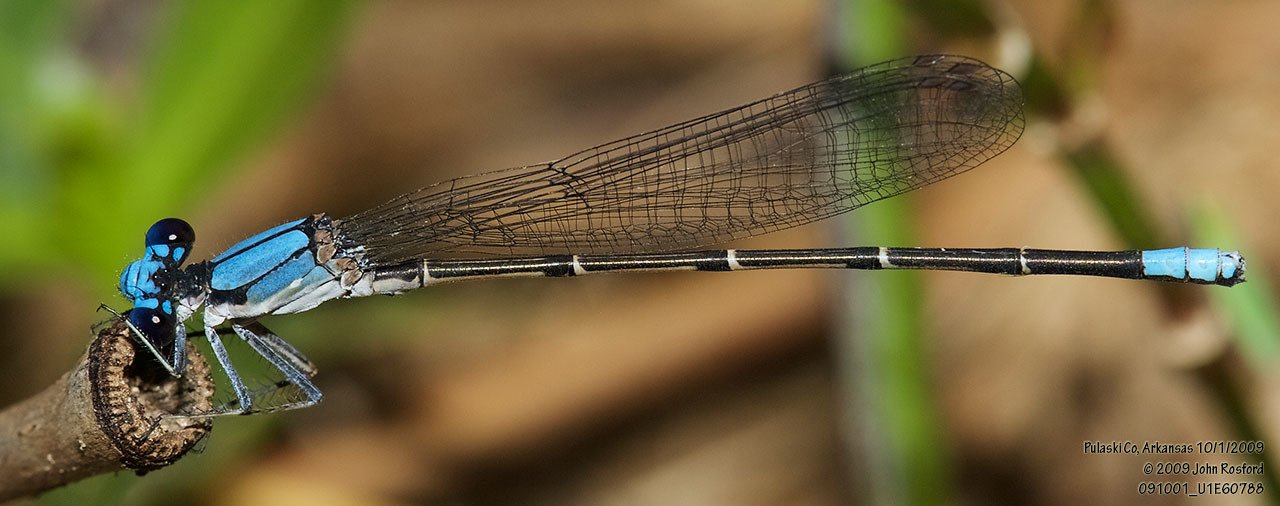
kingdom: Animalia
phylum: Arthropoda
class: Insecta
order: Odonata
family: Coenagrionidae
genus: Argia
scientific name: Argia apicalis
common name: Blue-fronted dancer
